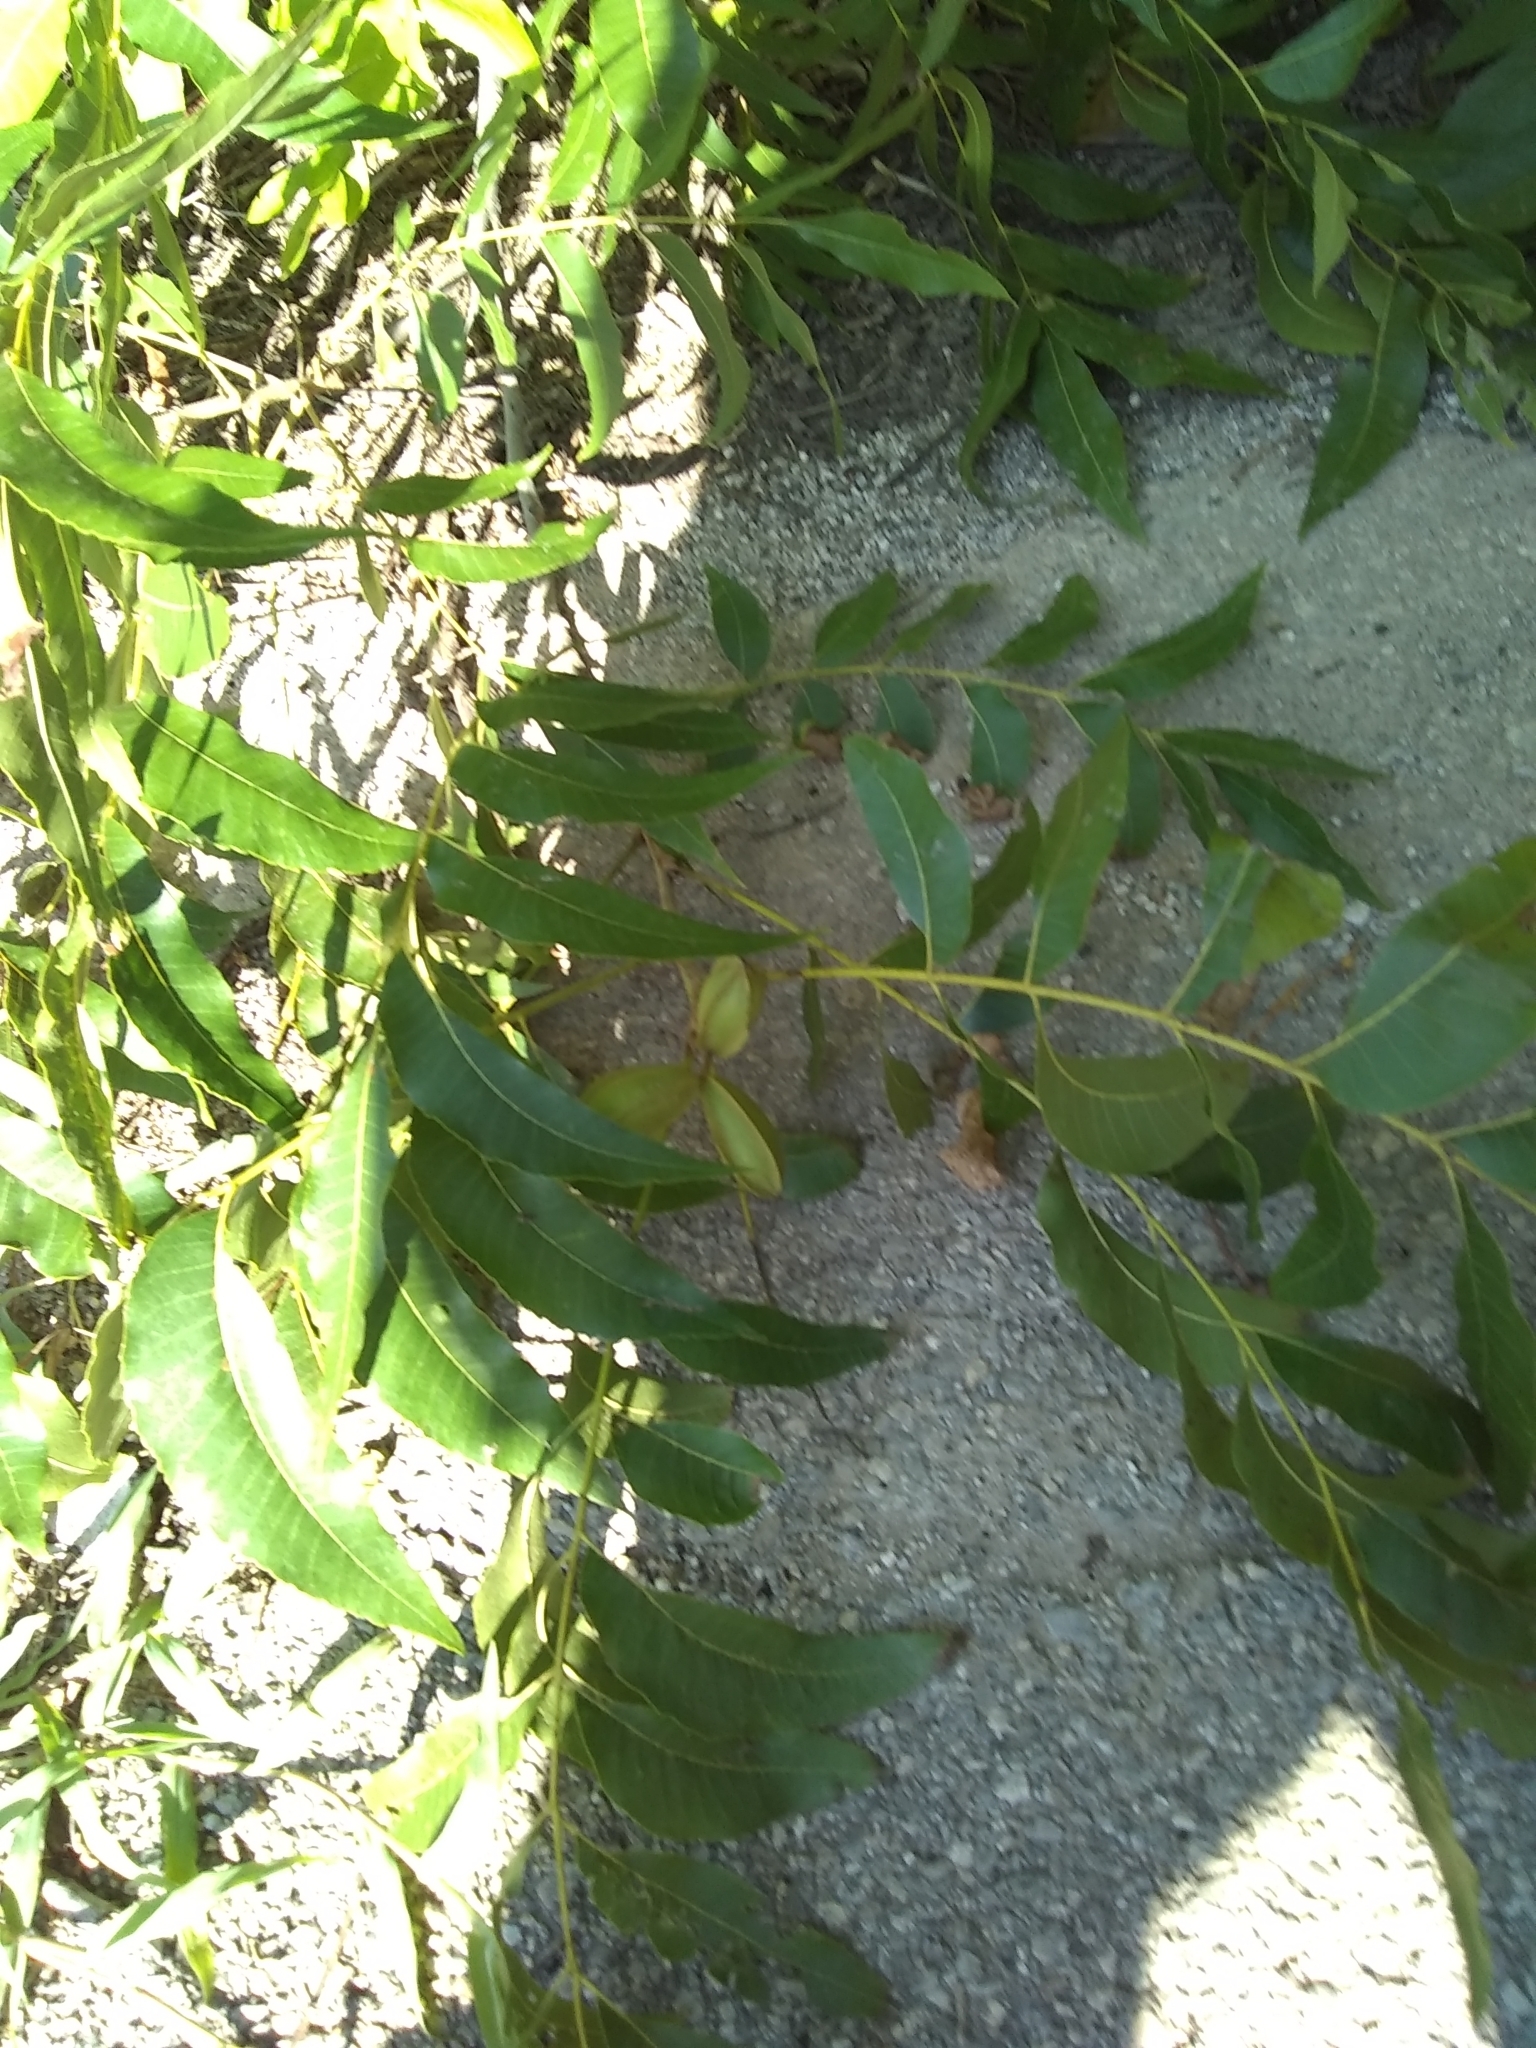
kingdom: Plantae
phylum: Tracheophyta
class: Magnoliopsida
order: Fagales
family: Juglandaceae
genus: Carya
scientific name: Carya illinoinensis
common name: Pecan
